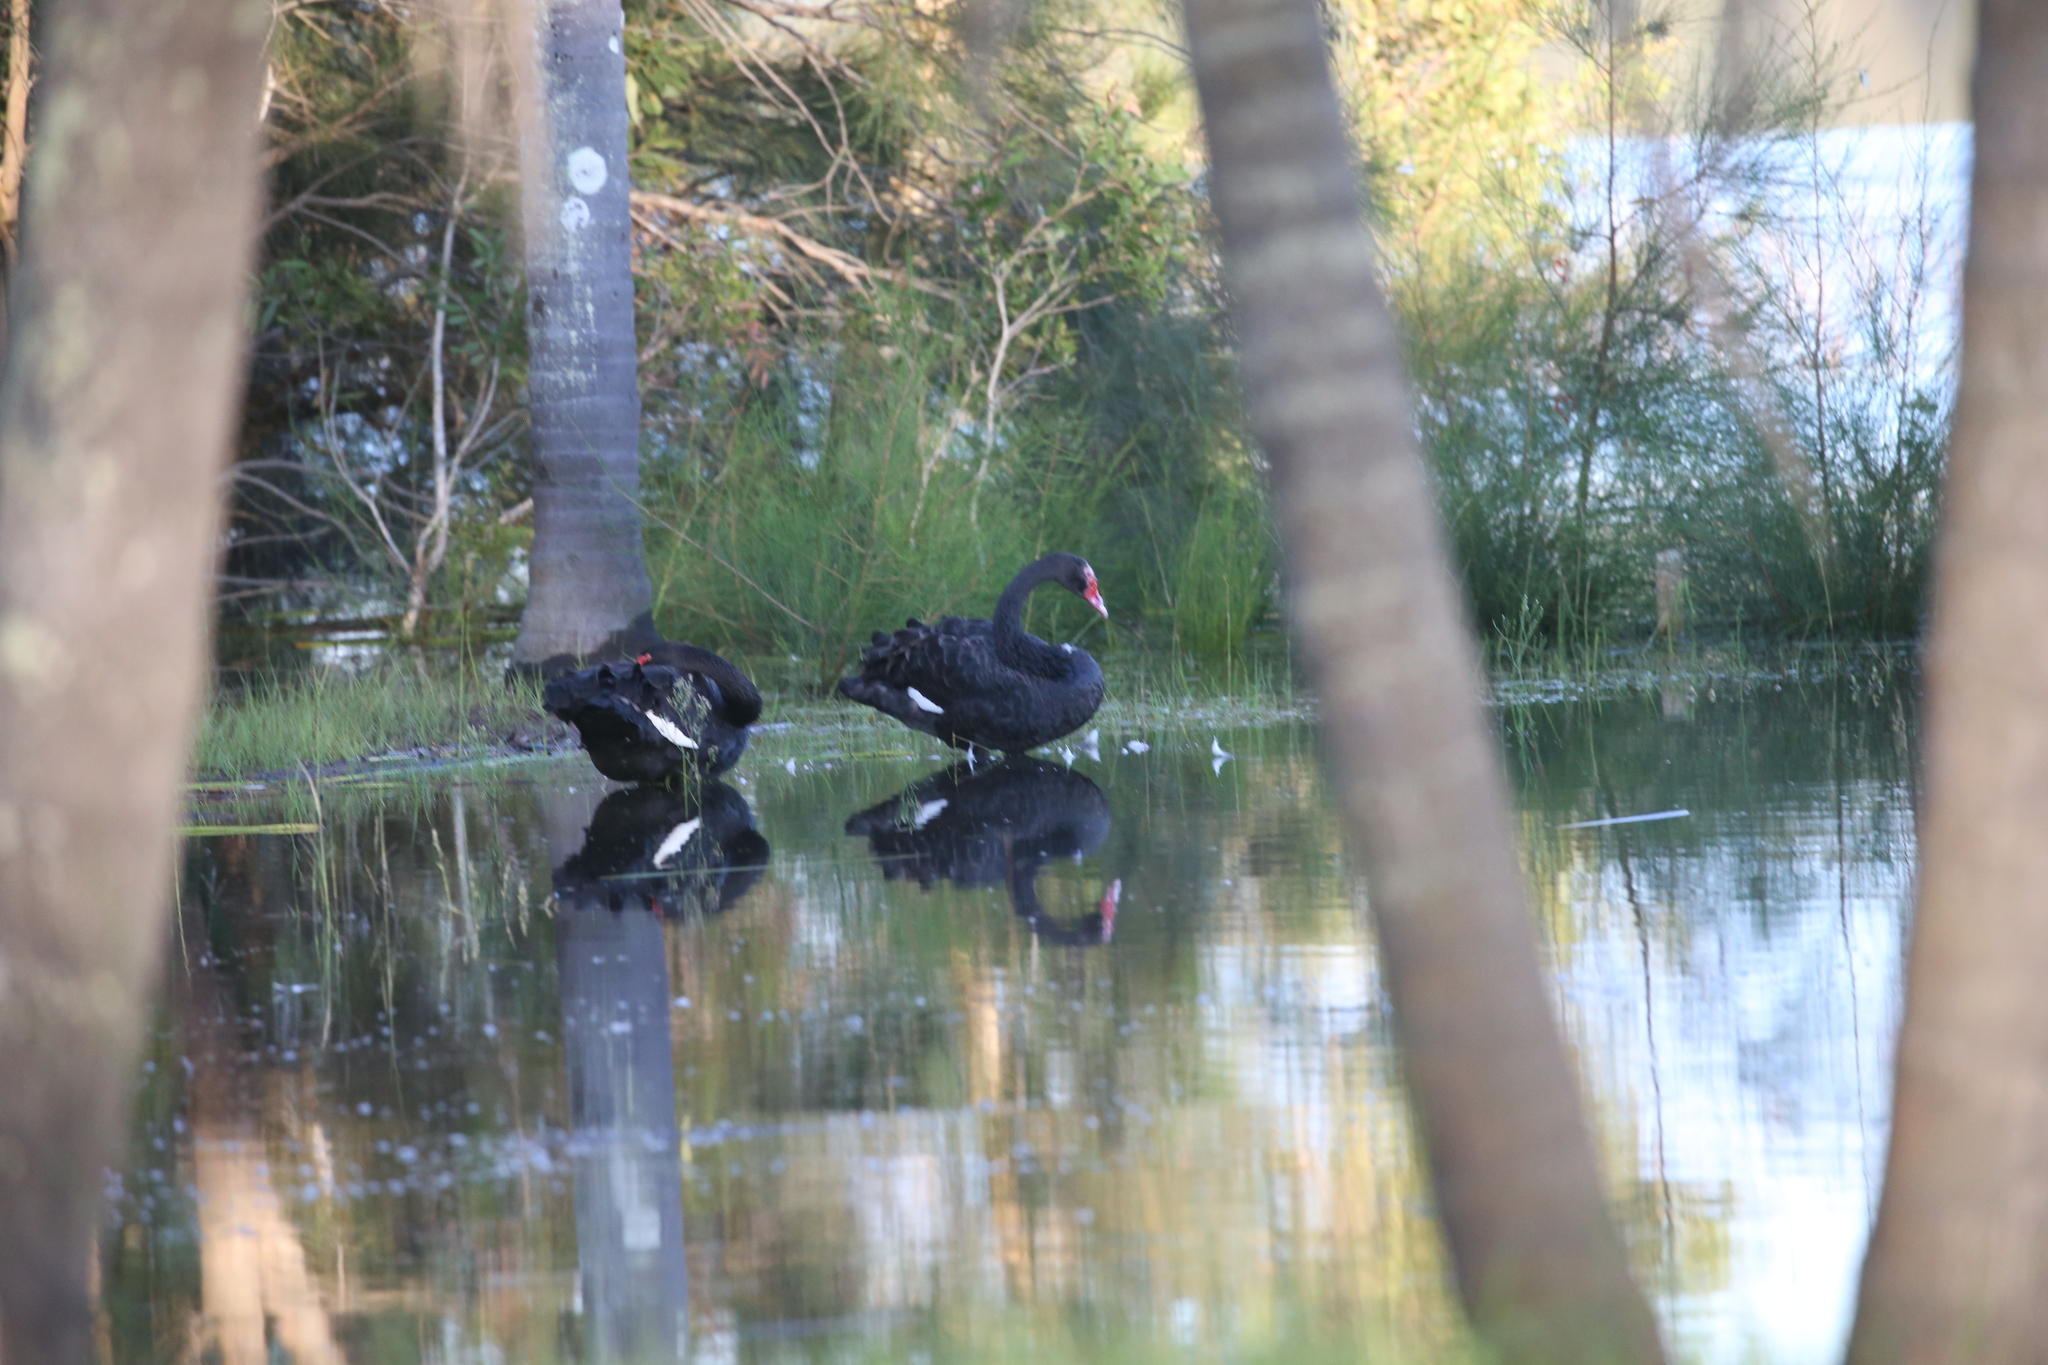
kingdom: Animalia
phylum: Chordata
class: Aves
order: Anseriformes
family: Anatidae
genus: Cygnus
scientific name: Cygnus atratus
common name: Black swan
